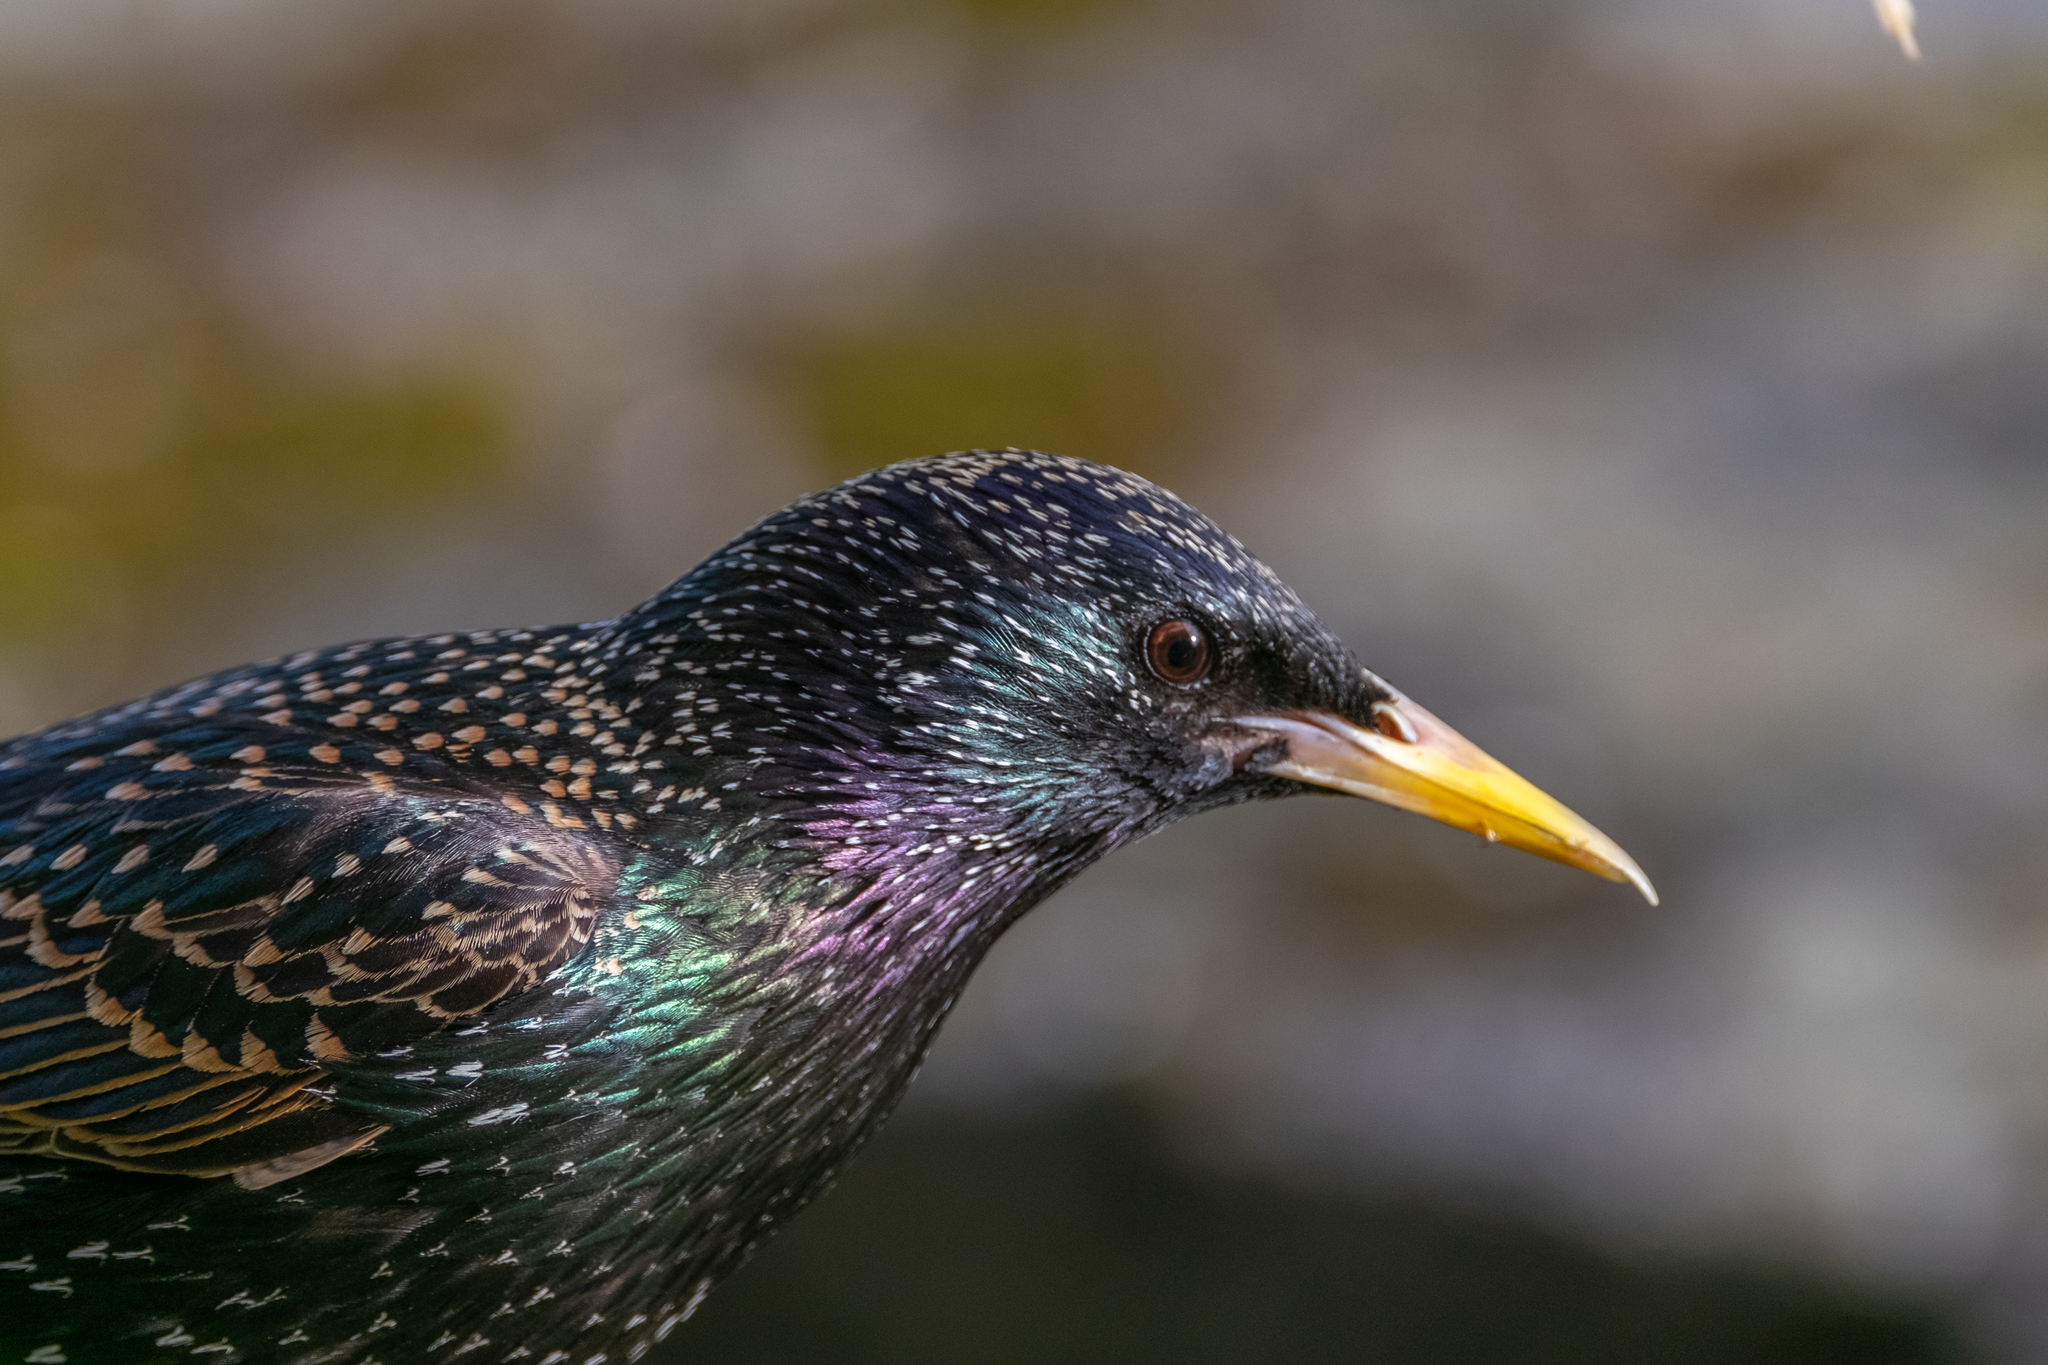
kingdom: Animalia
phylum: Chordata
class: Aves
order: Passeriformes
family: Sturnidae
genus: Sturnus
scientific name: Sturnus vulgaris
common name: Common starling
